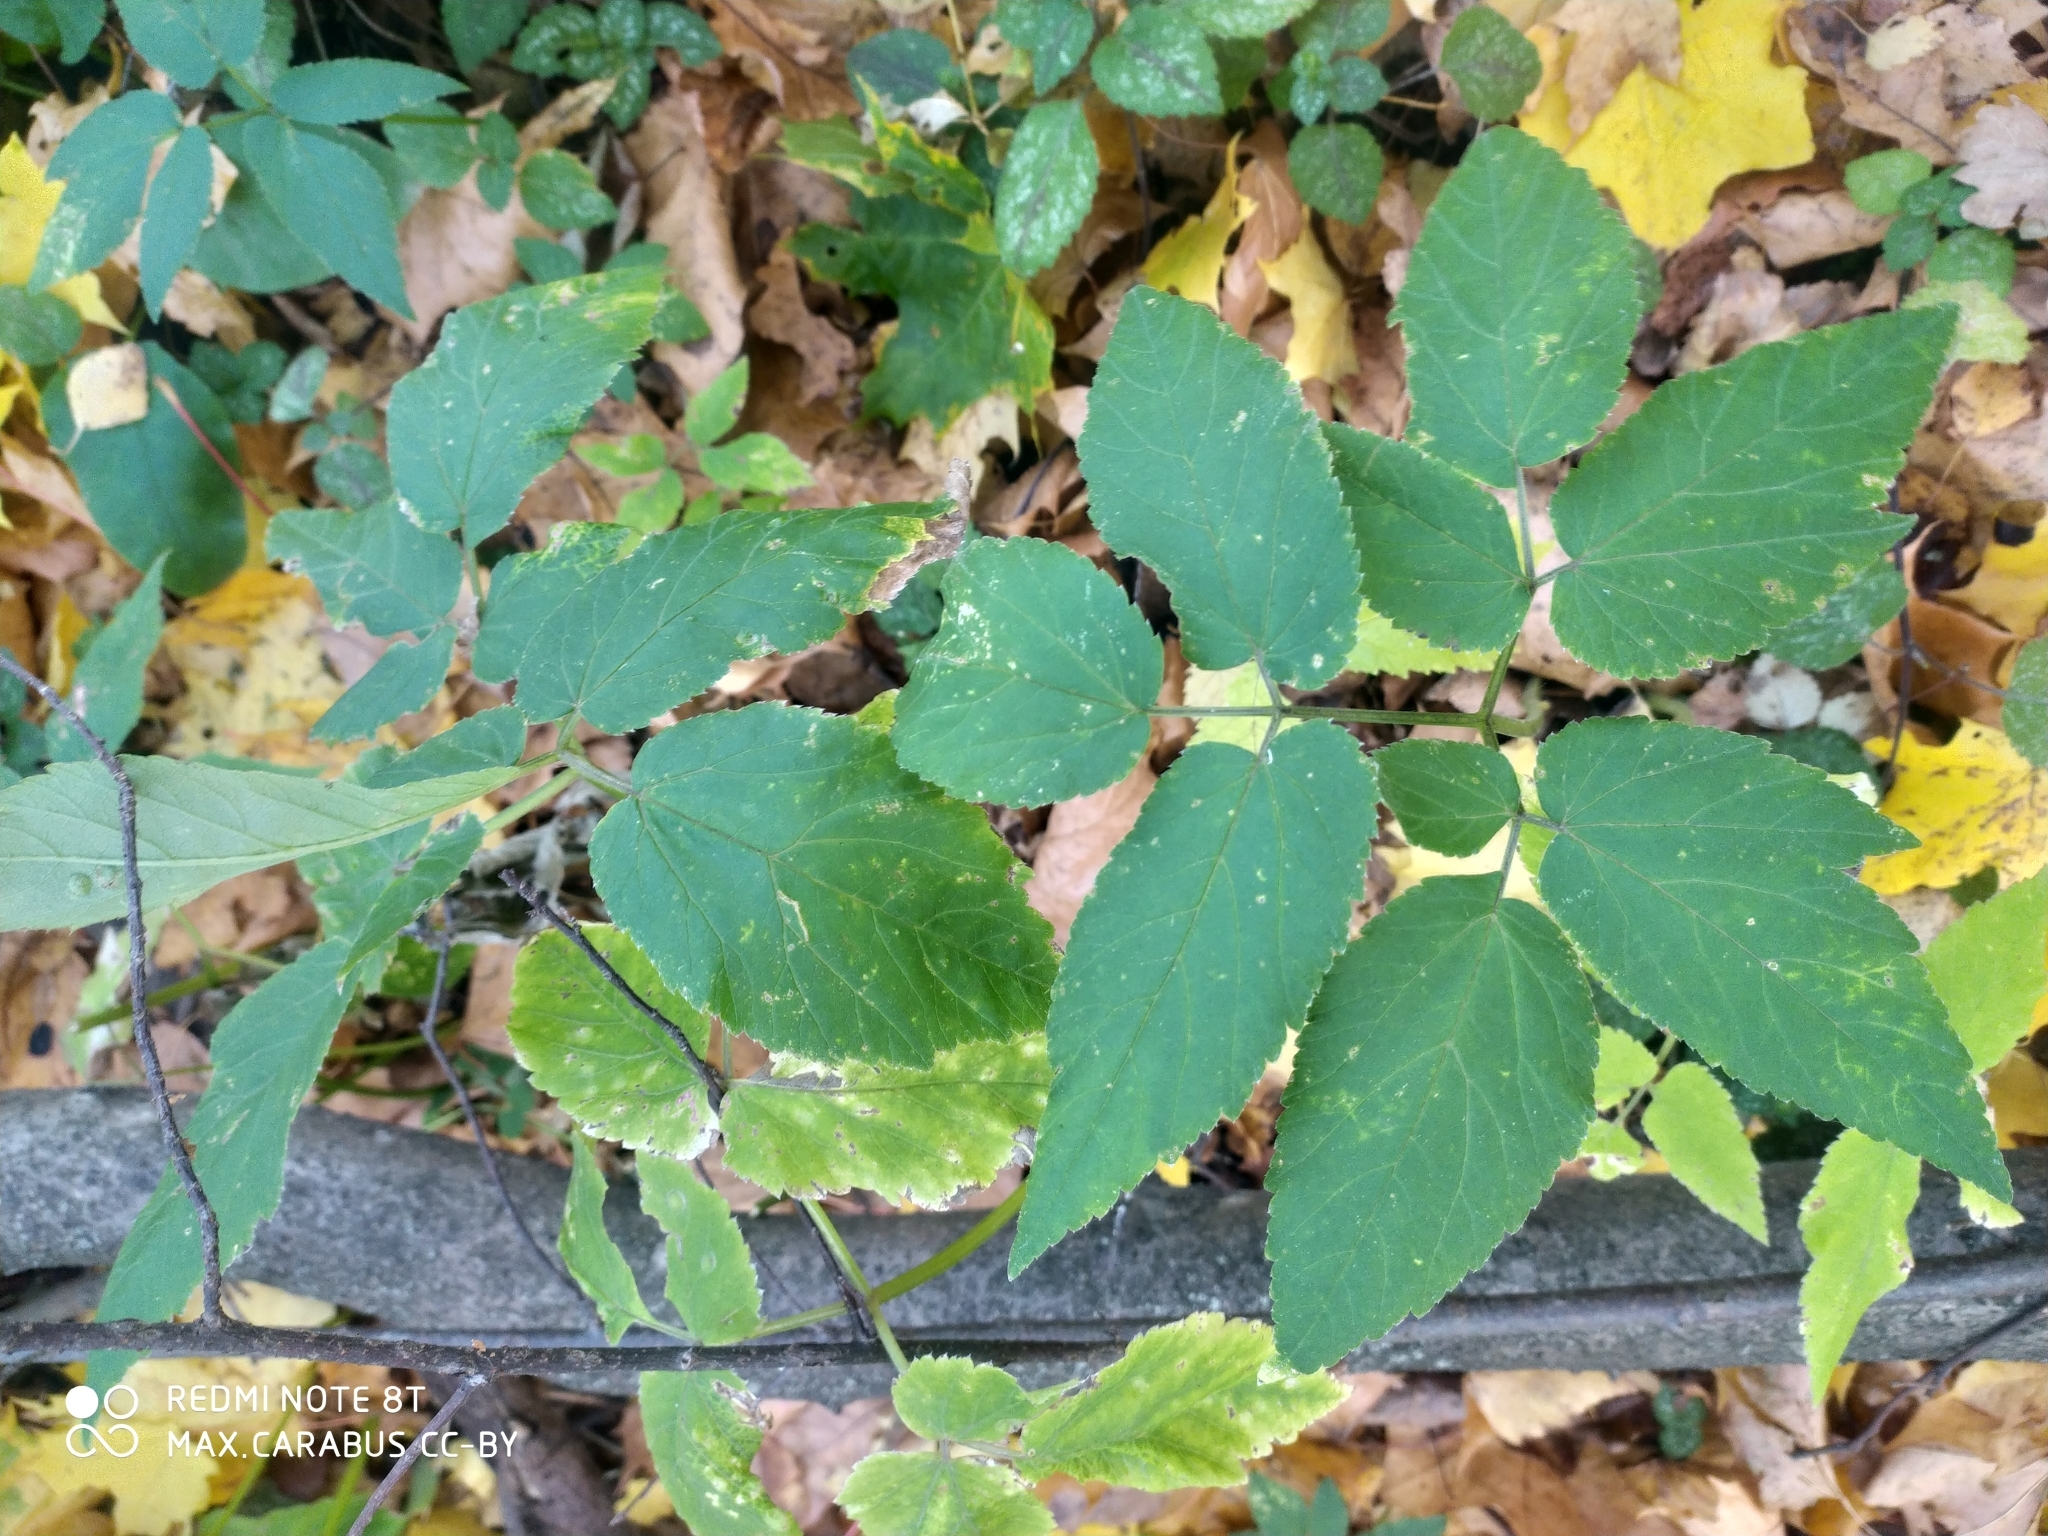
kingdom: Plantae
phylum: Tracheophyta
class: Magnoliopsida
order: Apiales
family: Apiaceae
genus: Aegopodium
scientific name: Aegopodium podagraria
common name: Ground-elder
